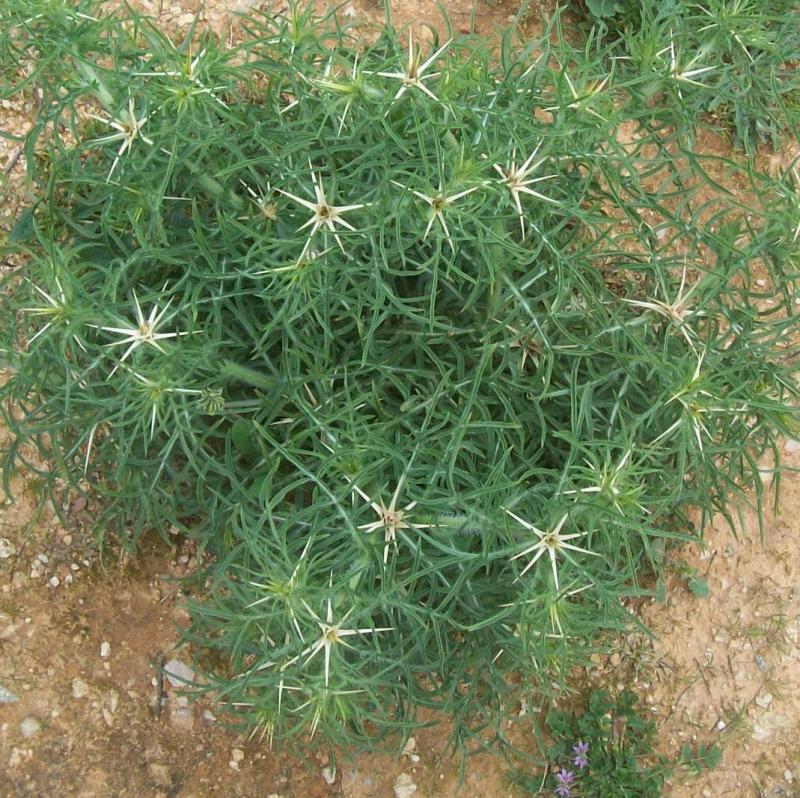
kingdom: Plantae
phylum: Tracheophyta
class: Magnoliopsida
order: Asterales
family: Asteraceae
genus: Centaurea
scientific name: Centaurea calcitrapa
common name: Red star-thistle
